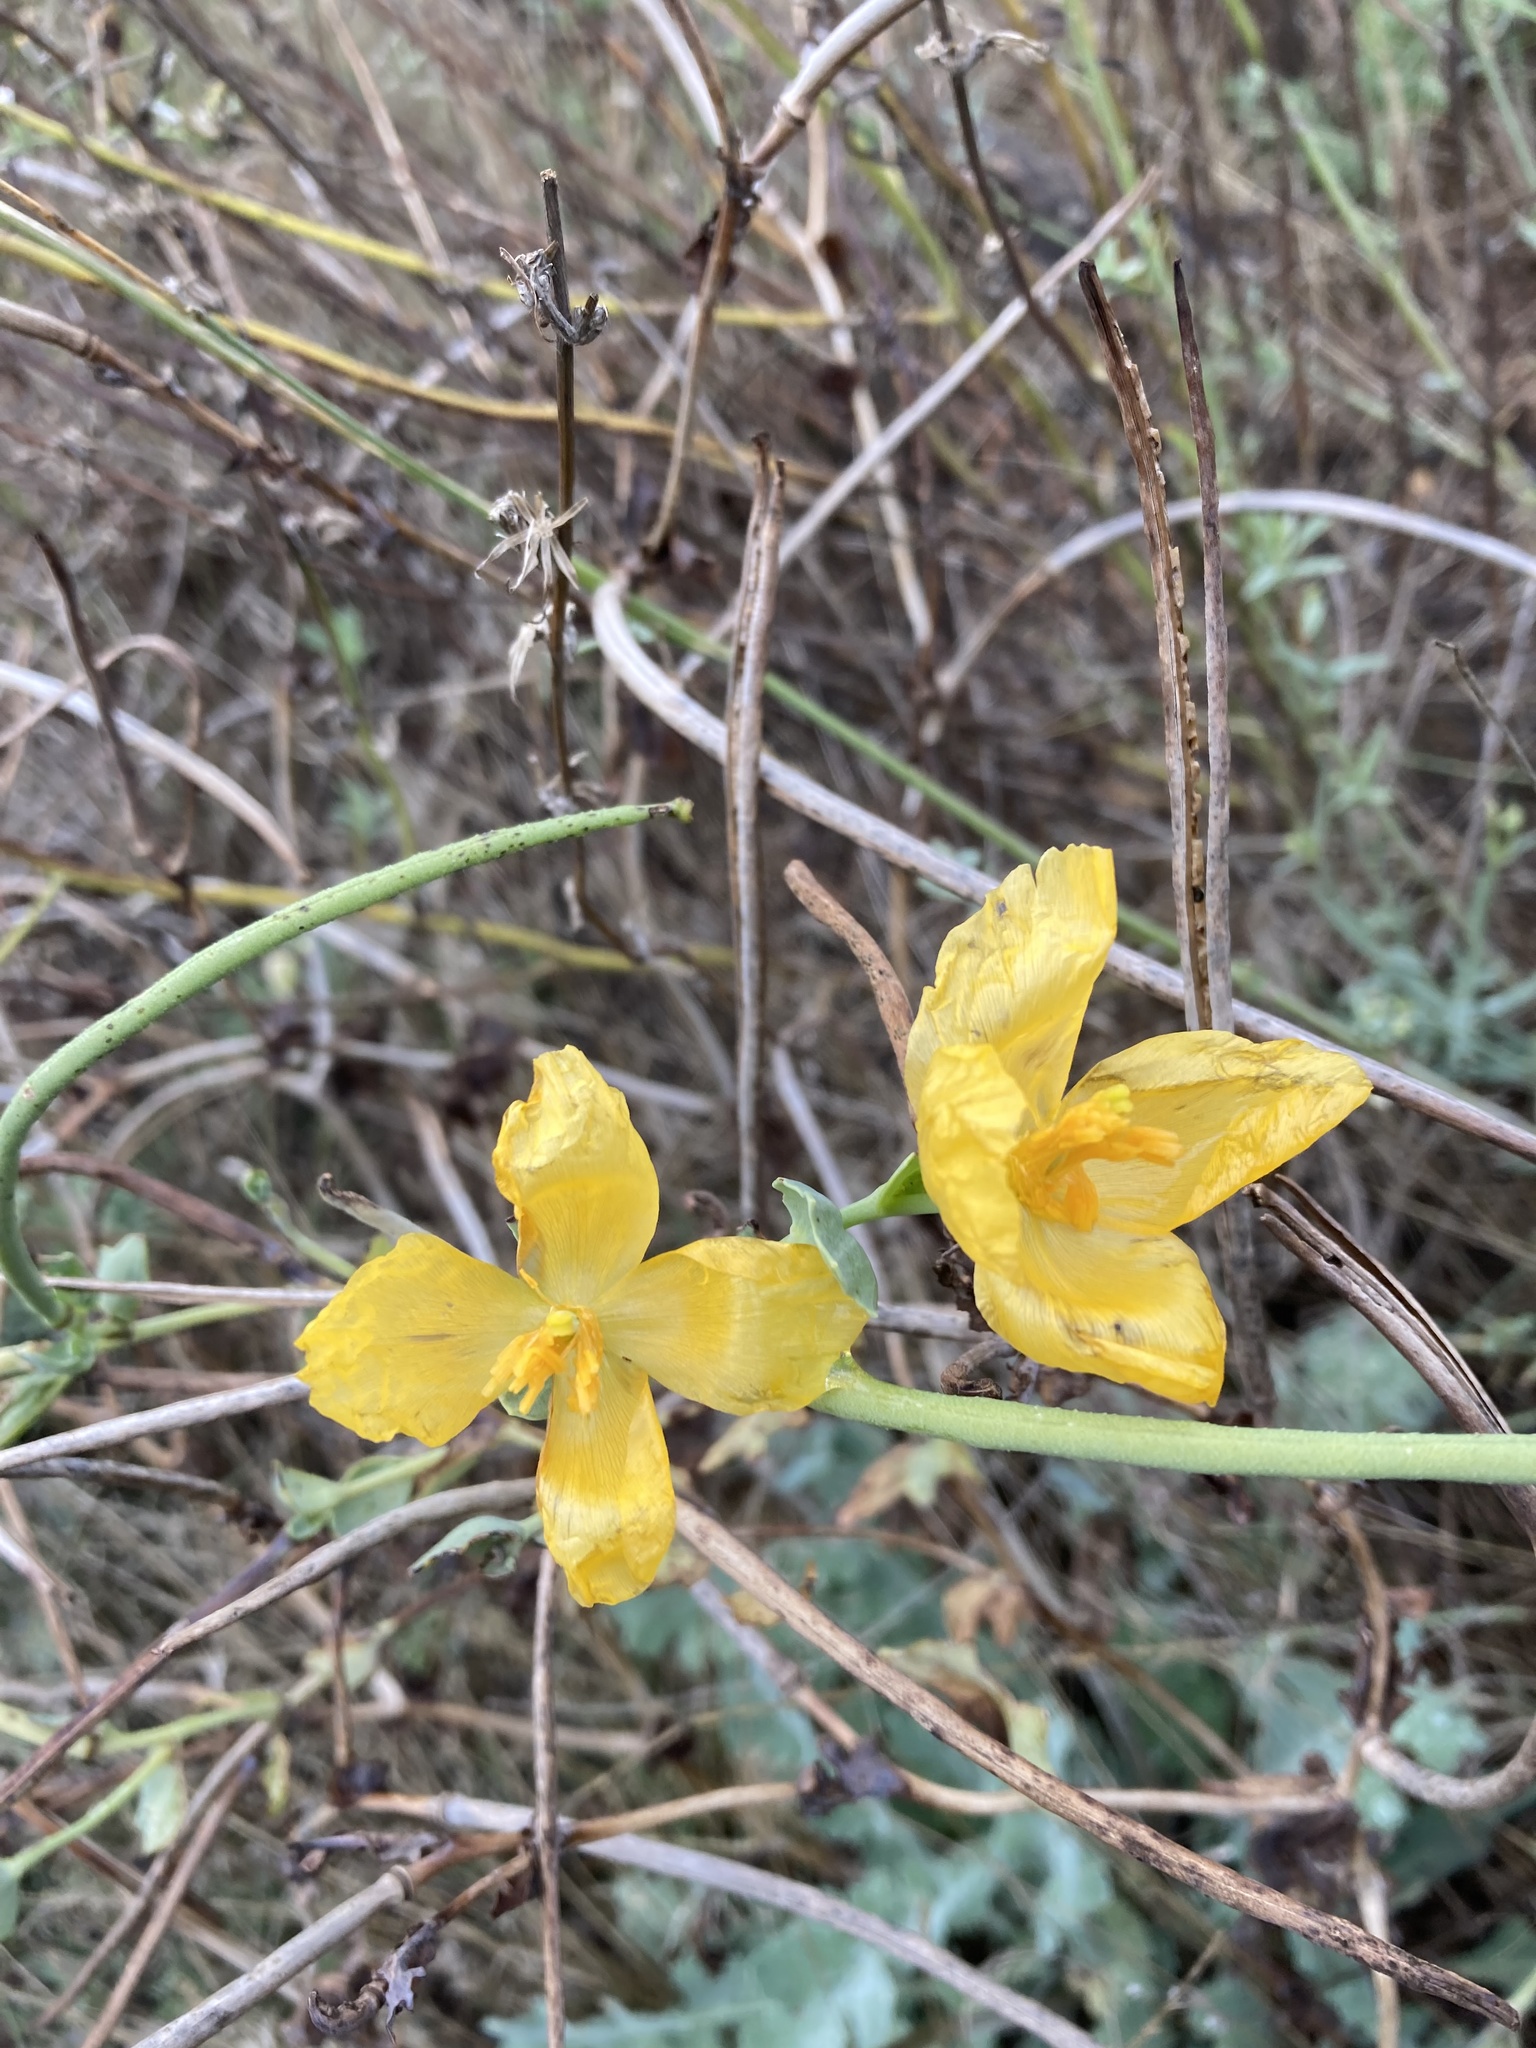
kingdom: Plantae
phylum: Tracheophyta
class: Magnoliopsida
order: Ranunculales
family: Papaveraceae
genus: Glaucium
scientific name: Glaucium flavum
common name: Yellow horned-poppy
